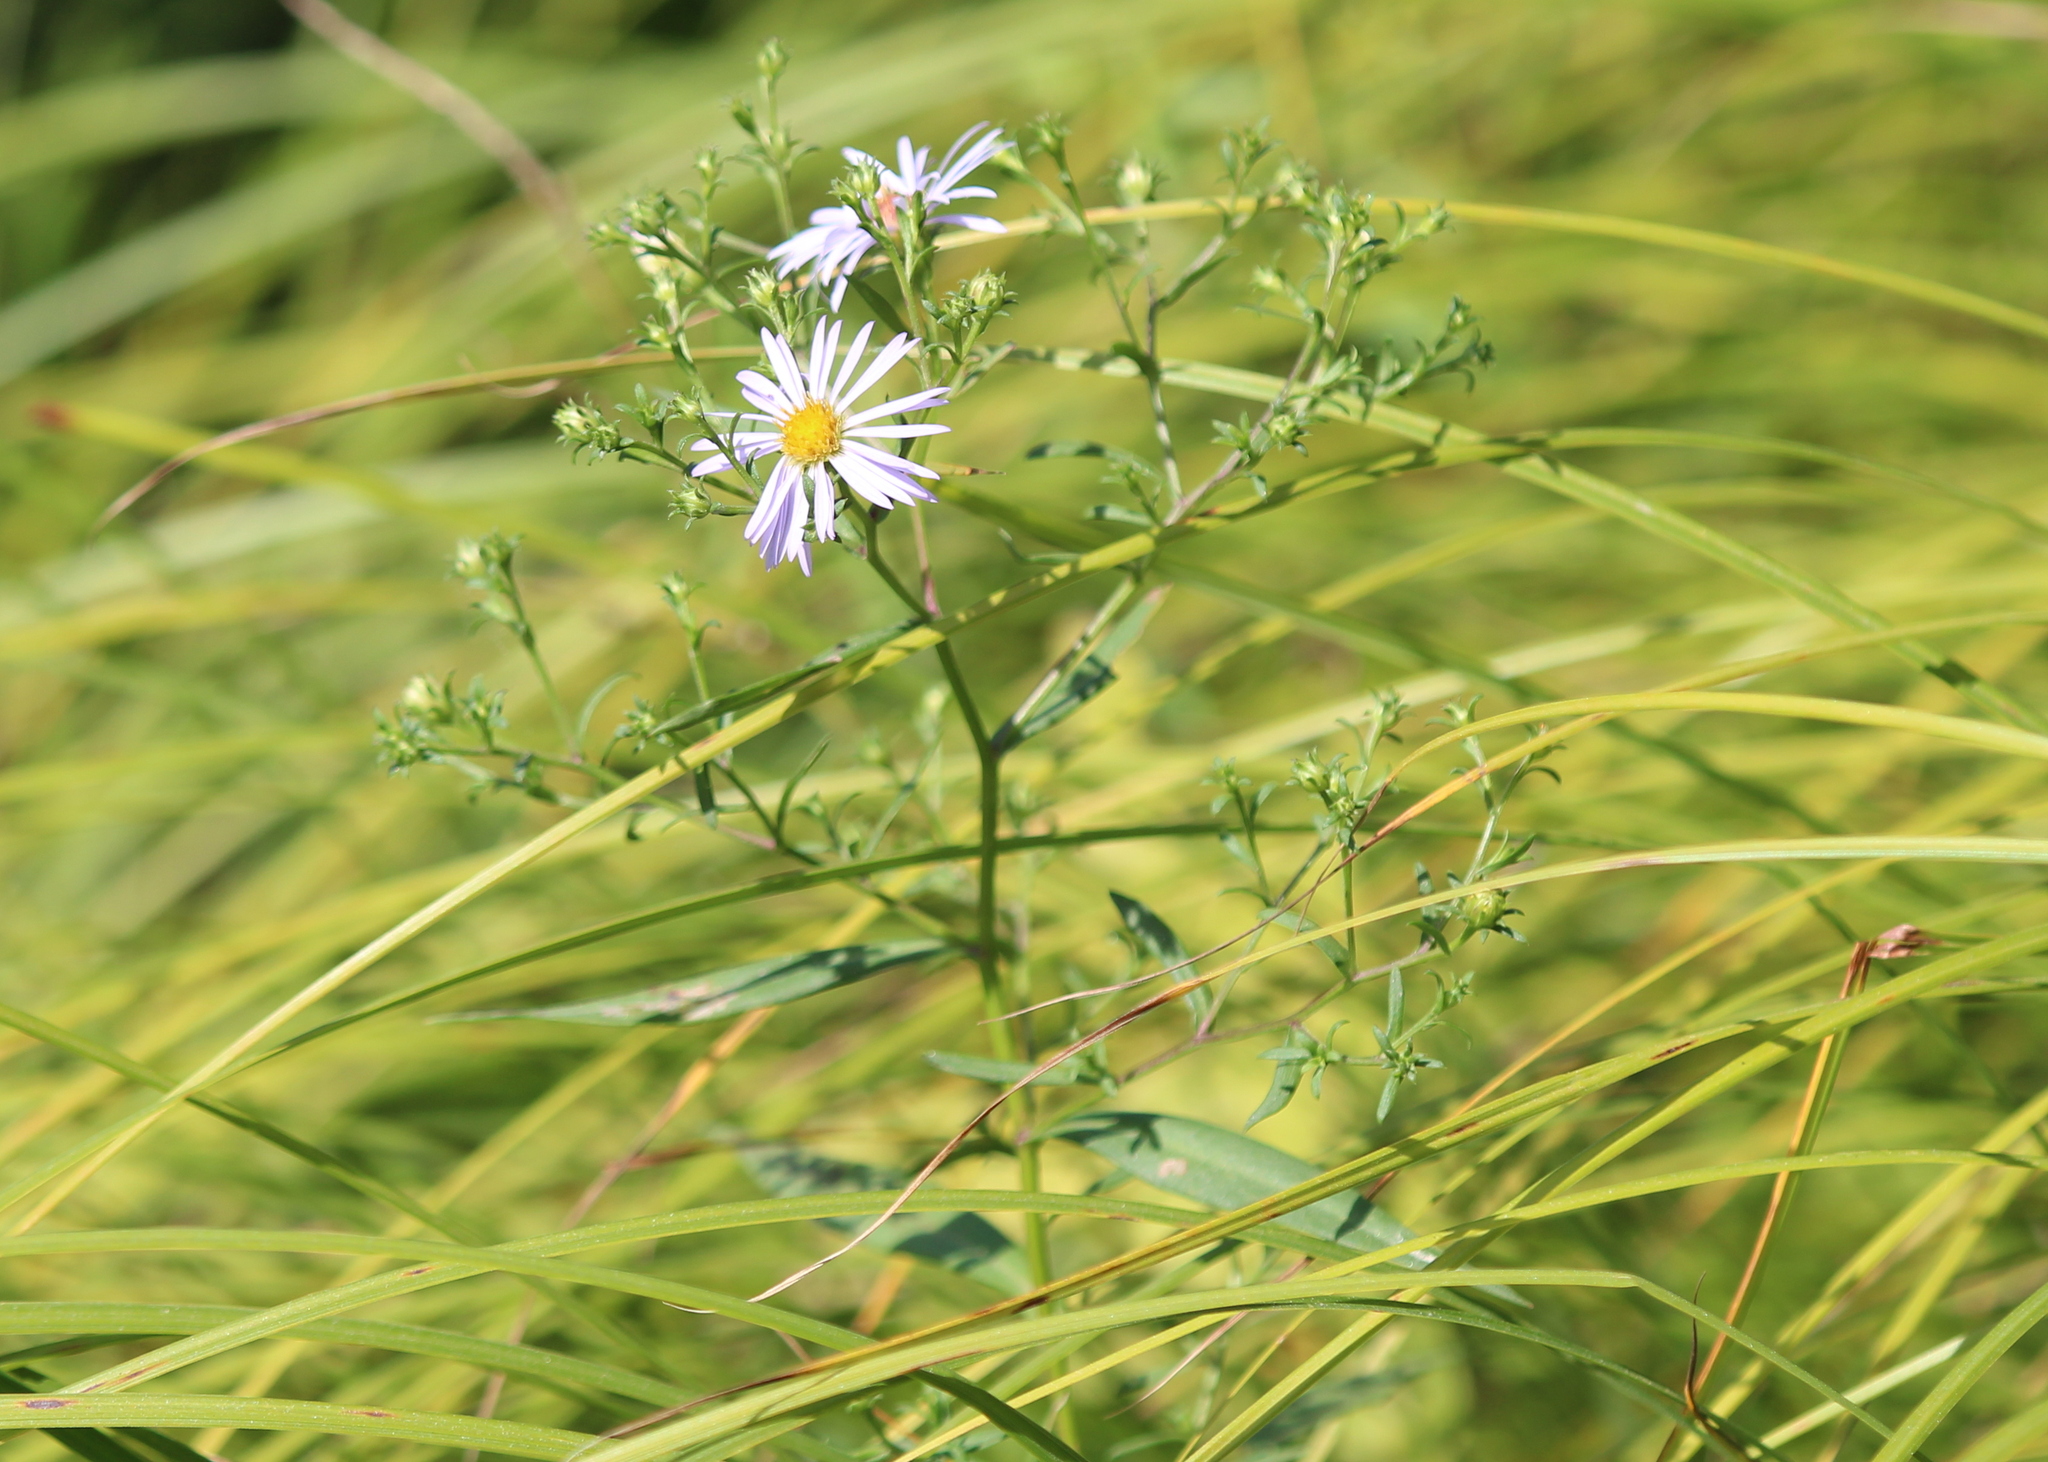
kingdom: Plantae
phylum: Tracheophyta
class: Magnoliopsida
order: Asterales
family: Asteraceae
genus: Symphyotrichum
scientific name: Symphyotrichum novi-belgii
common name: Michaelmas daisy
